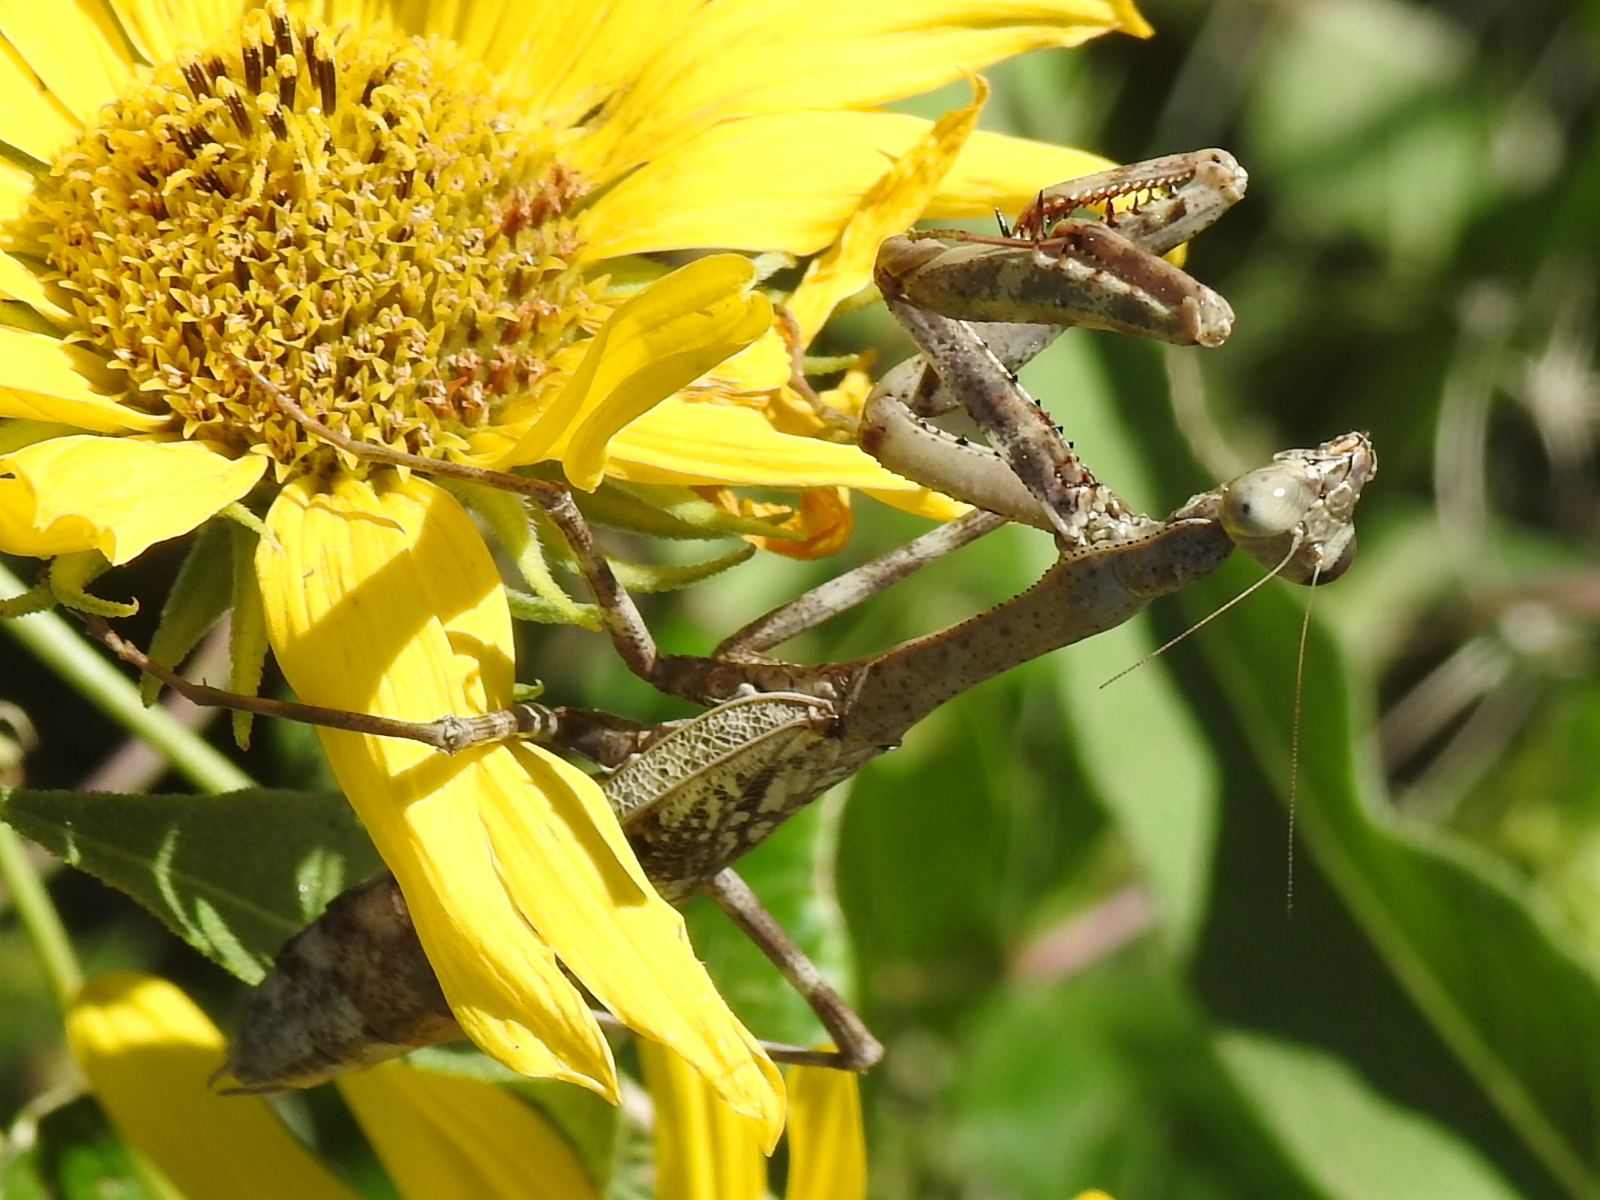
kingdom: Animalia
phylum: Arthropoda
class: Insecta
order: Mantodea
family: Mantidae
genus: Stagmomantis
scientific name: Stagmomantis carolina
